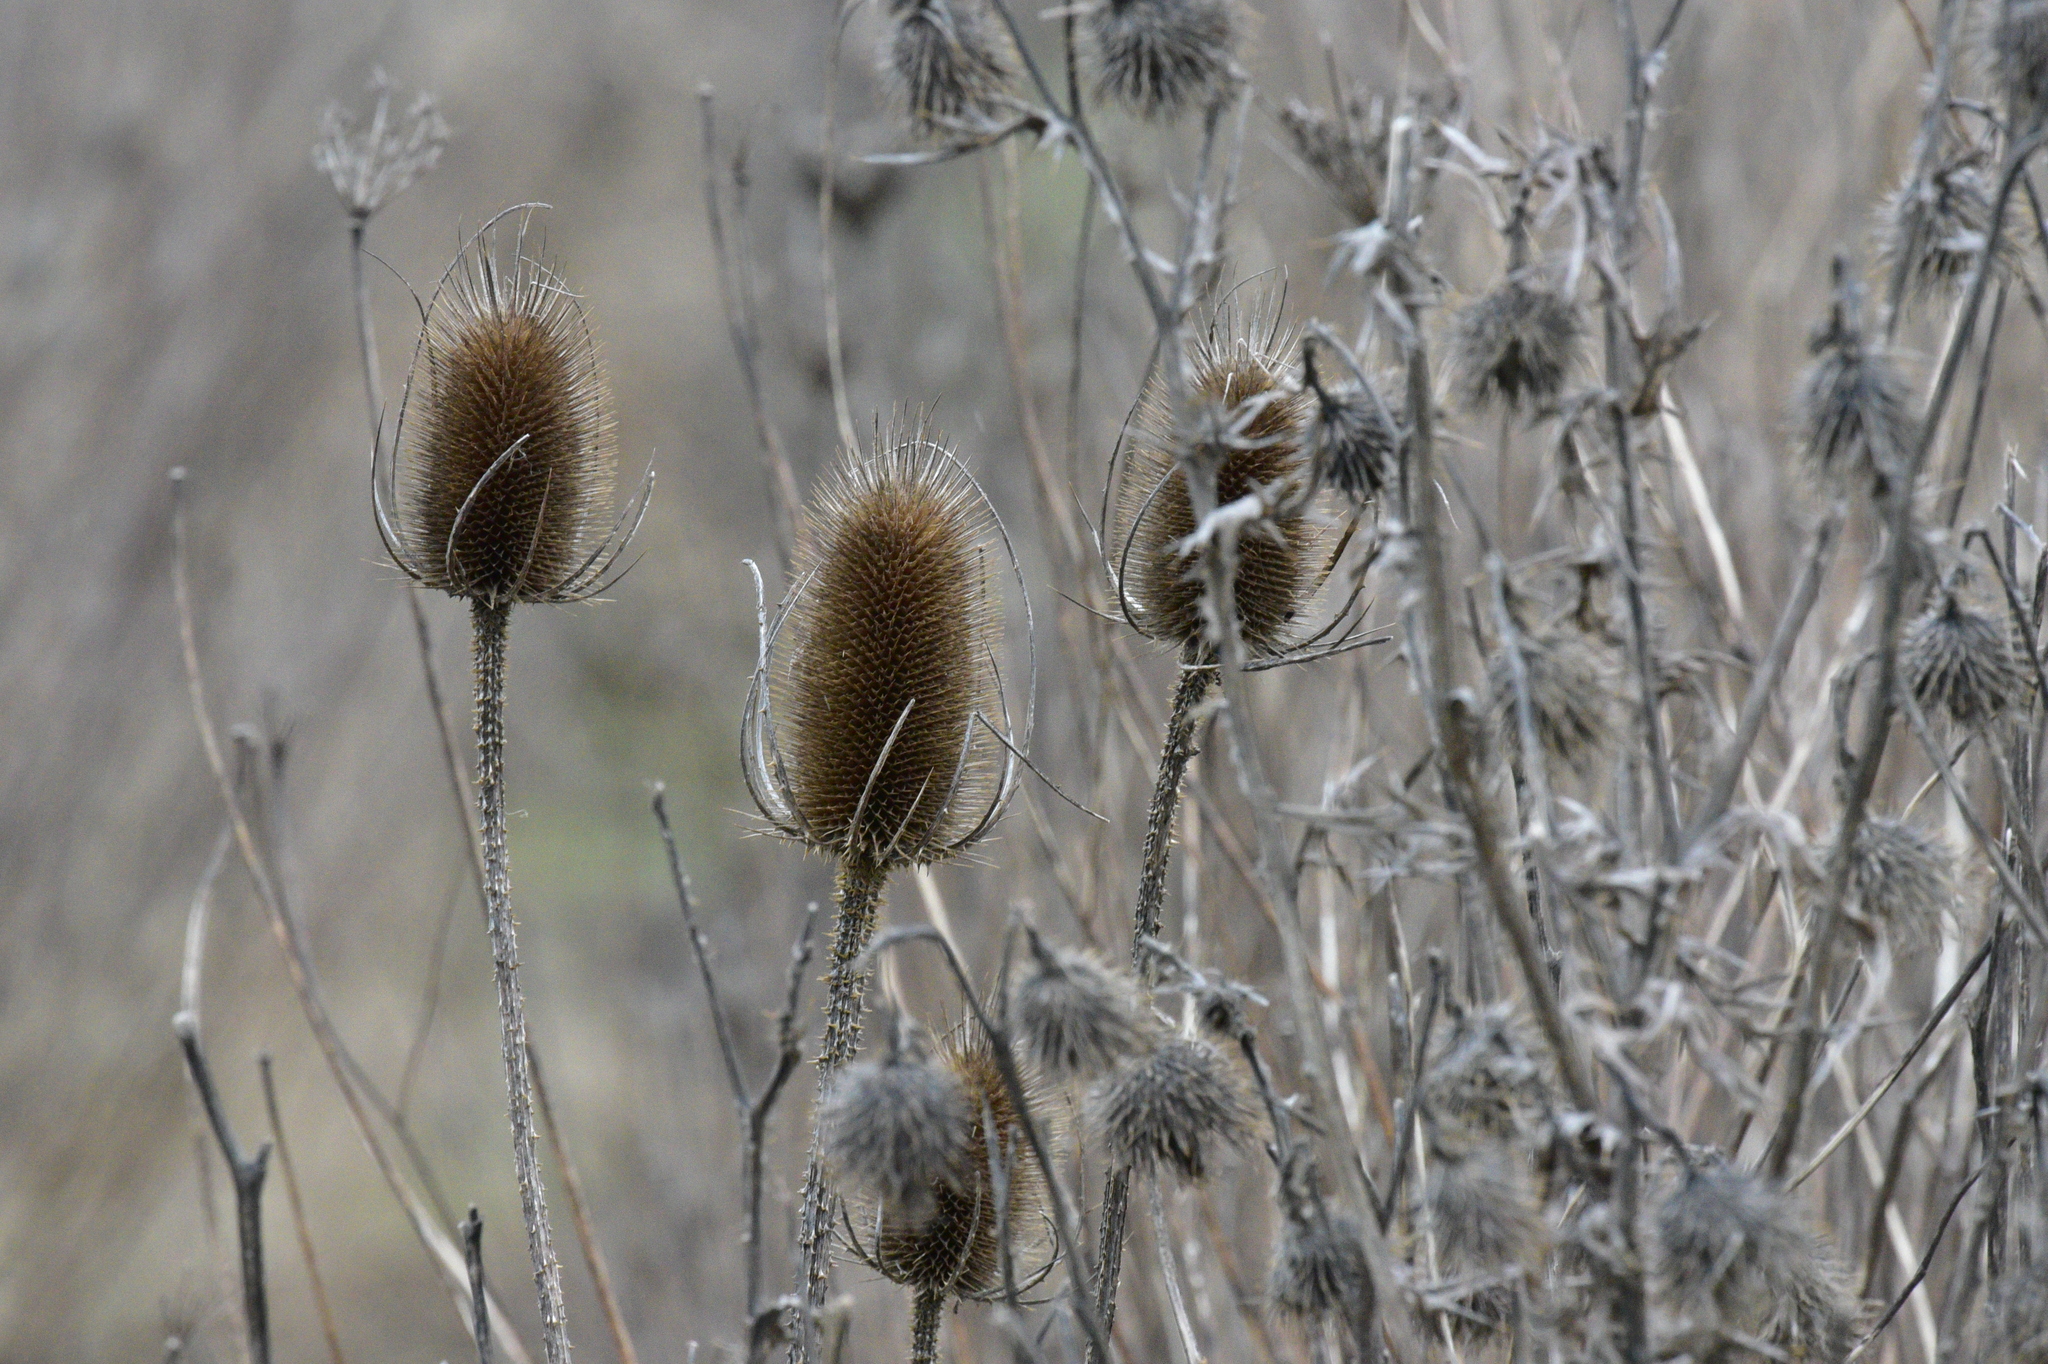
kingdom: Plantae
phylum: Tracheophyta
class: Magnoliopsida
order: Dipsacales
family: Caprifoliaceae
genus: Dipsacus
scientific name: Dipsacus fullonum
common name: Teasel
